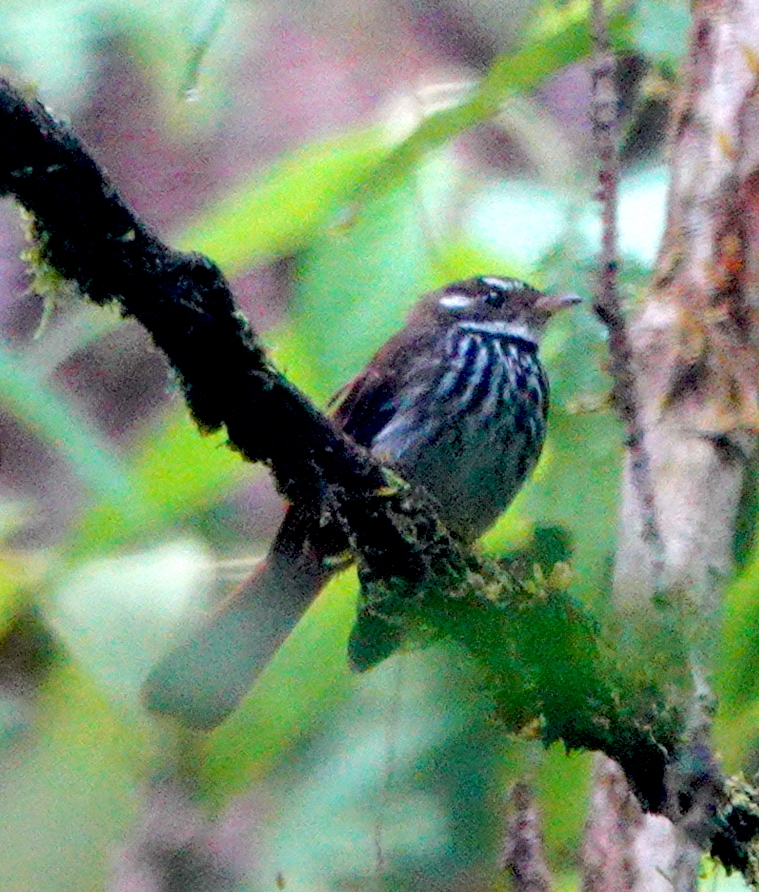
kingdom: Animalia
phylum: Chordata
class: Aves
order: Passeriformes
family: Rhipiduridae
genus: Rhipidura
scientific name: Rhipidura dedemi
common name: Streak-breasted fantail
